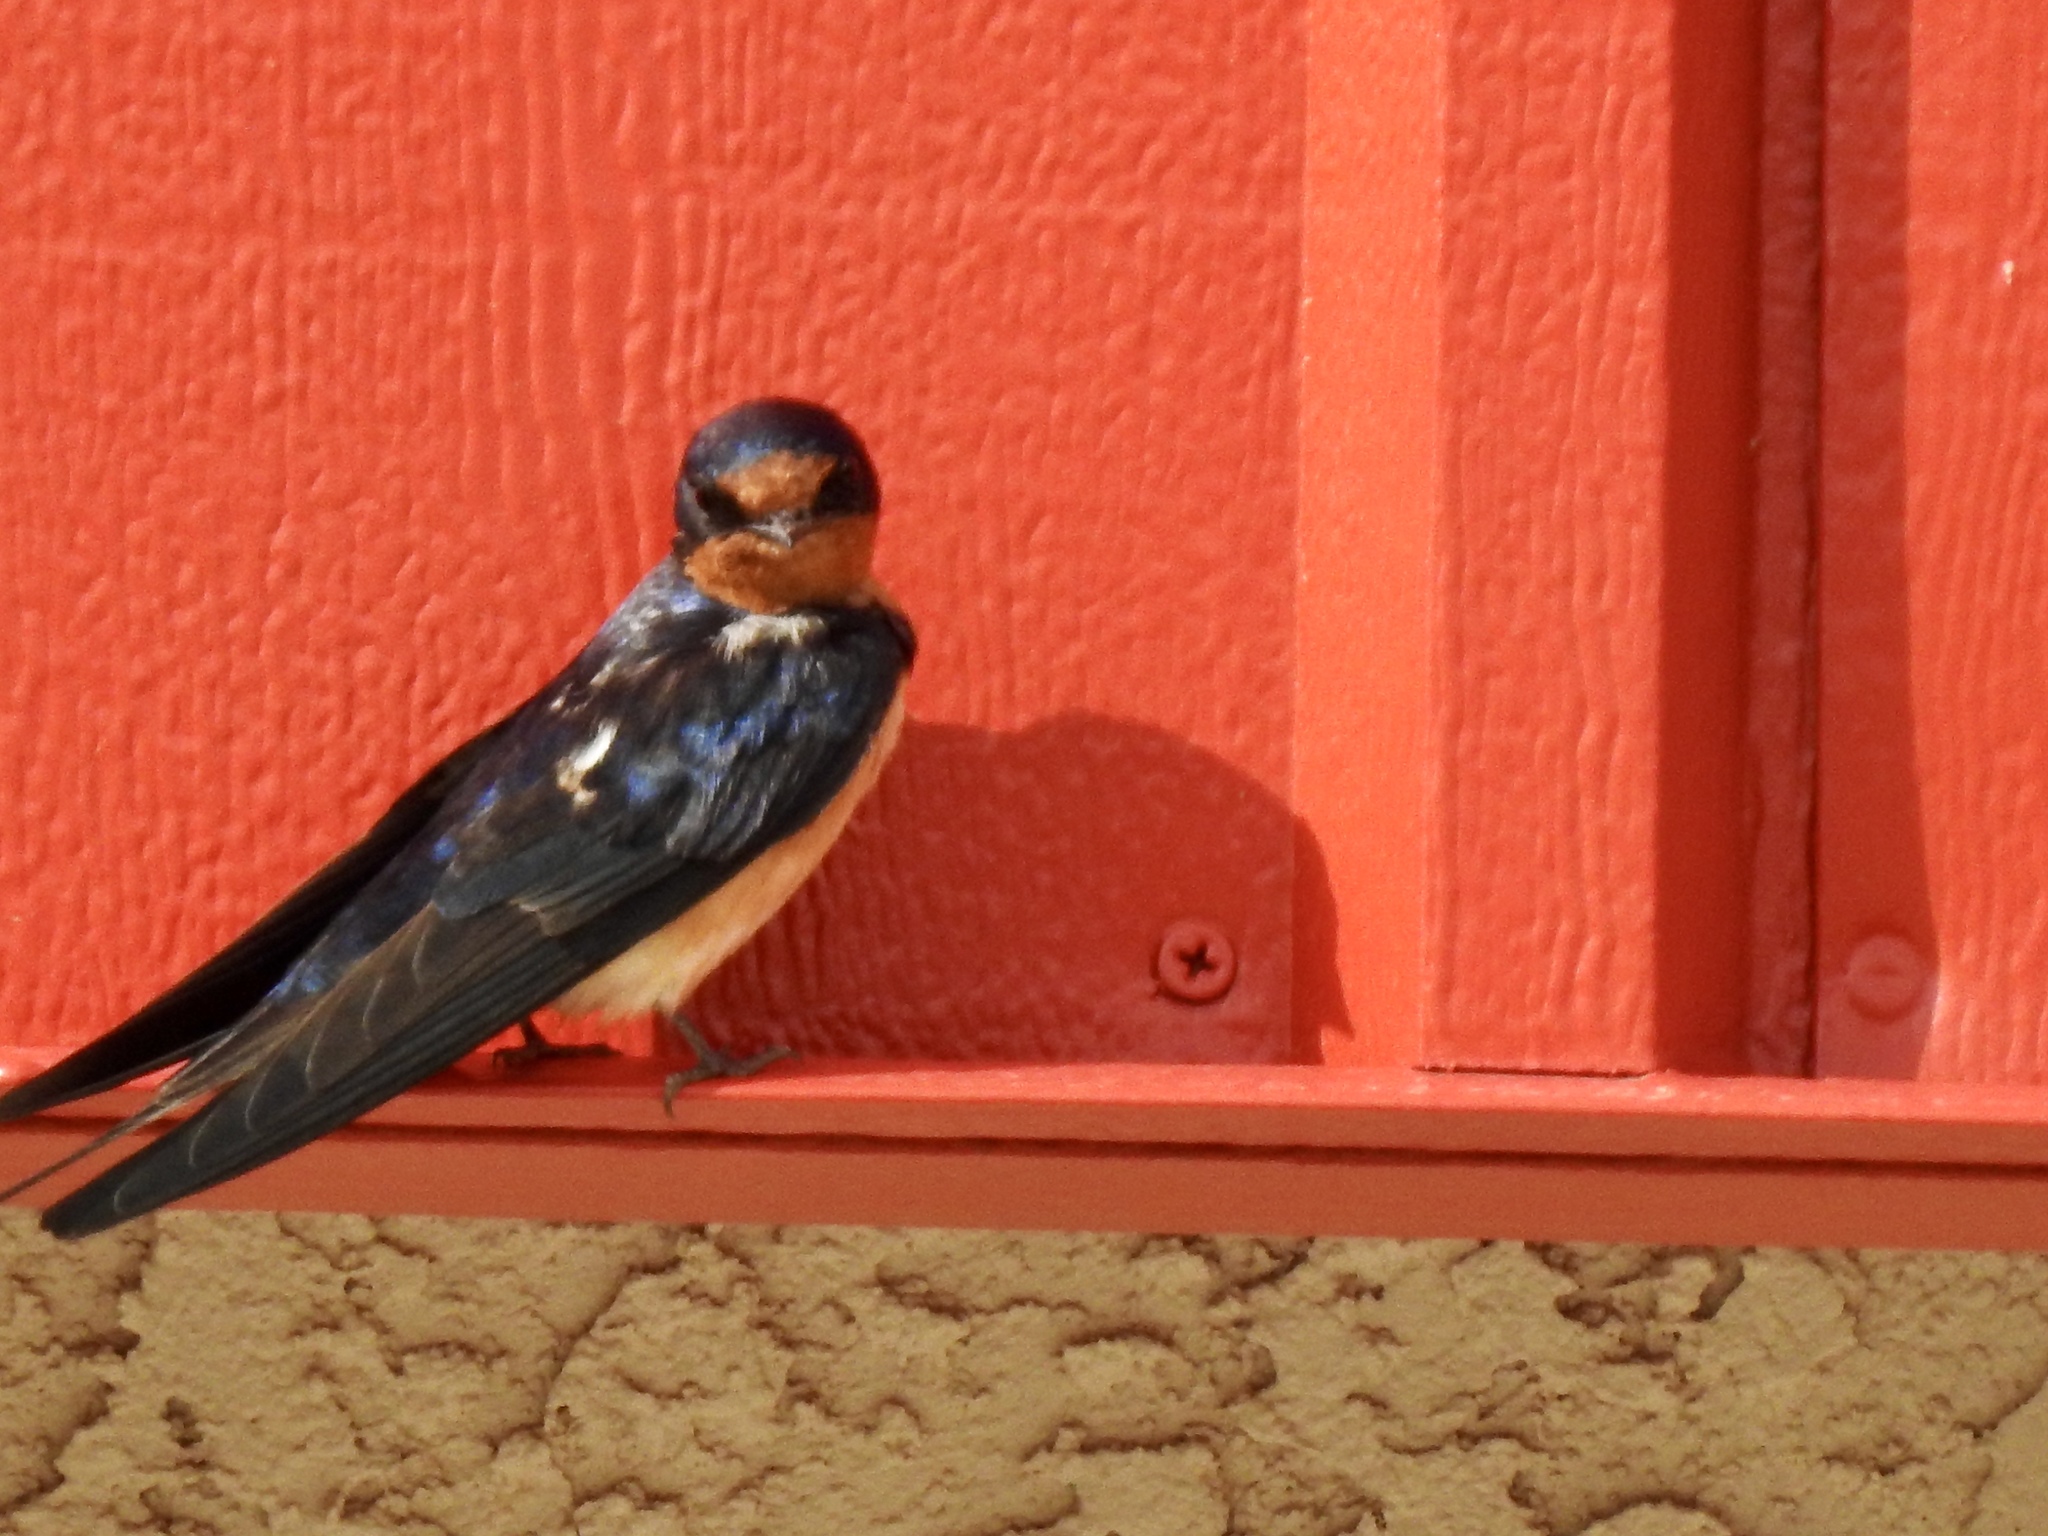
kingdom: Animalia
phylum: Chordata
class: Aves
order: Passeriformes
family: Hirundinidae
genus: Hirundo
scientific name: Hirundo rustica
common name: Barn swallow
